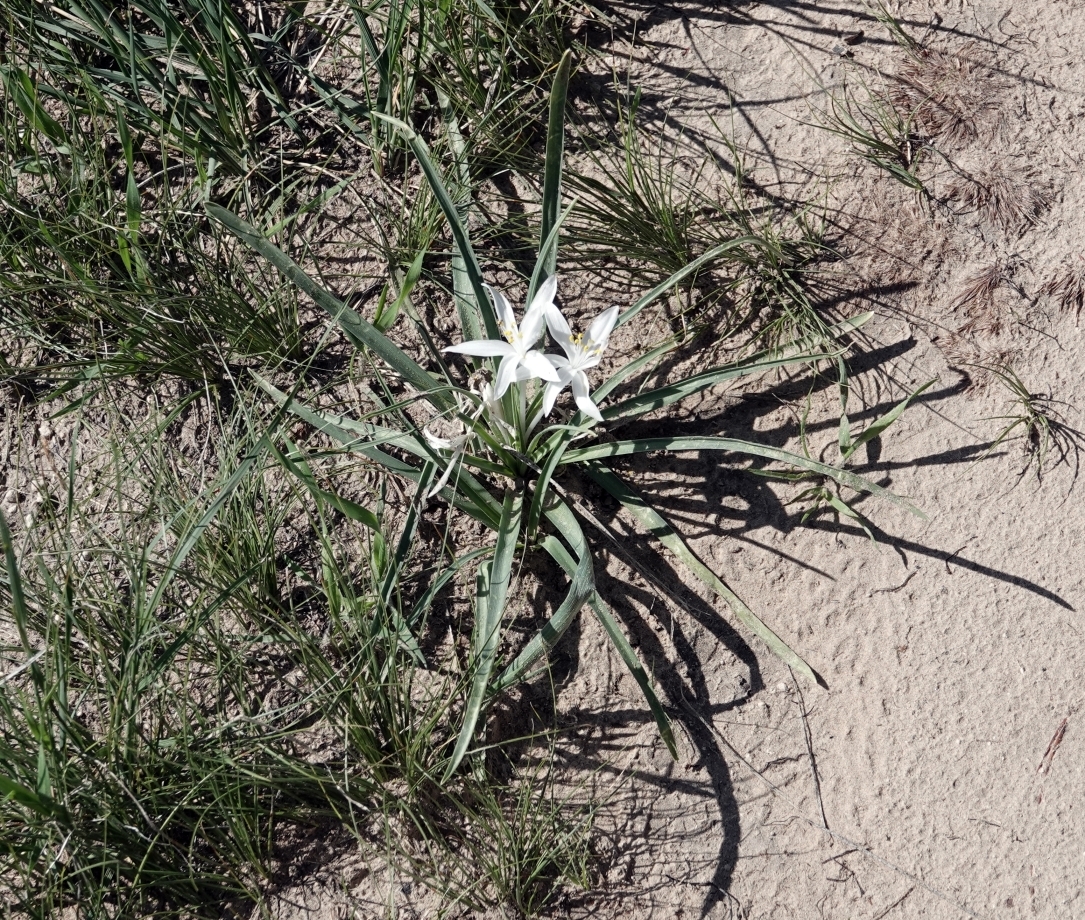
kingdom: Plantae
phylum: Tracheophyta
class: Liliopsida
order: Asparagales
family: Asparagaceae
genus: Leucocrinum
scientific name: Leucocrinum montanum
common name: Mountain-lily
